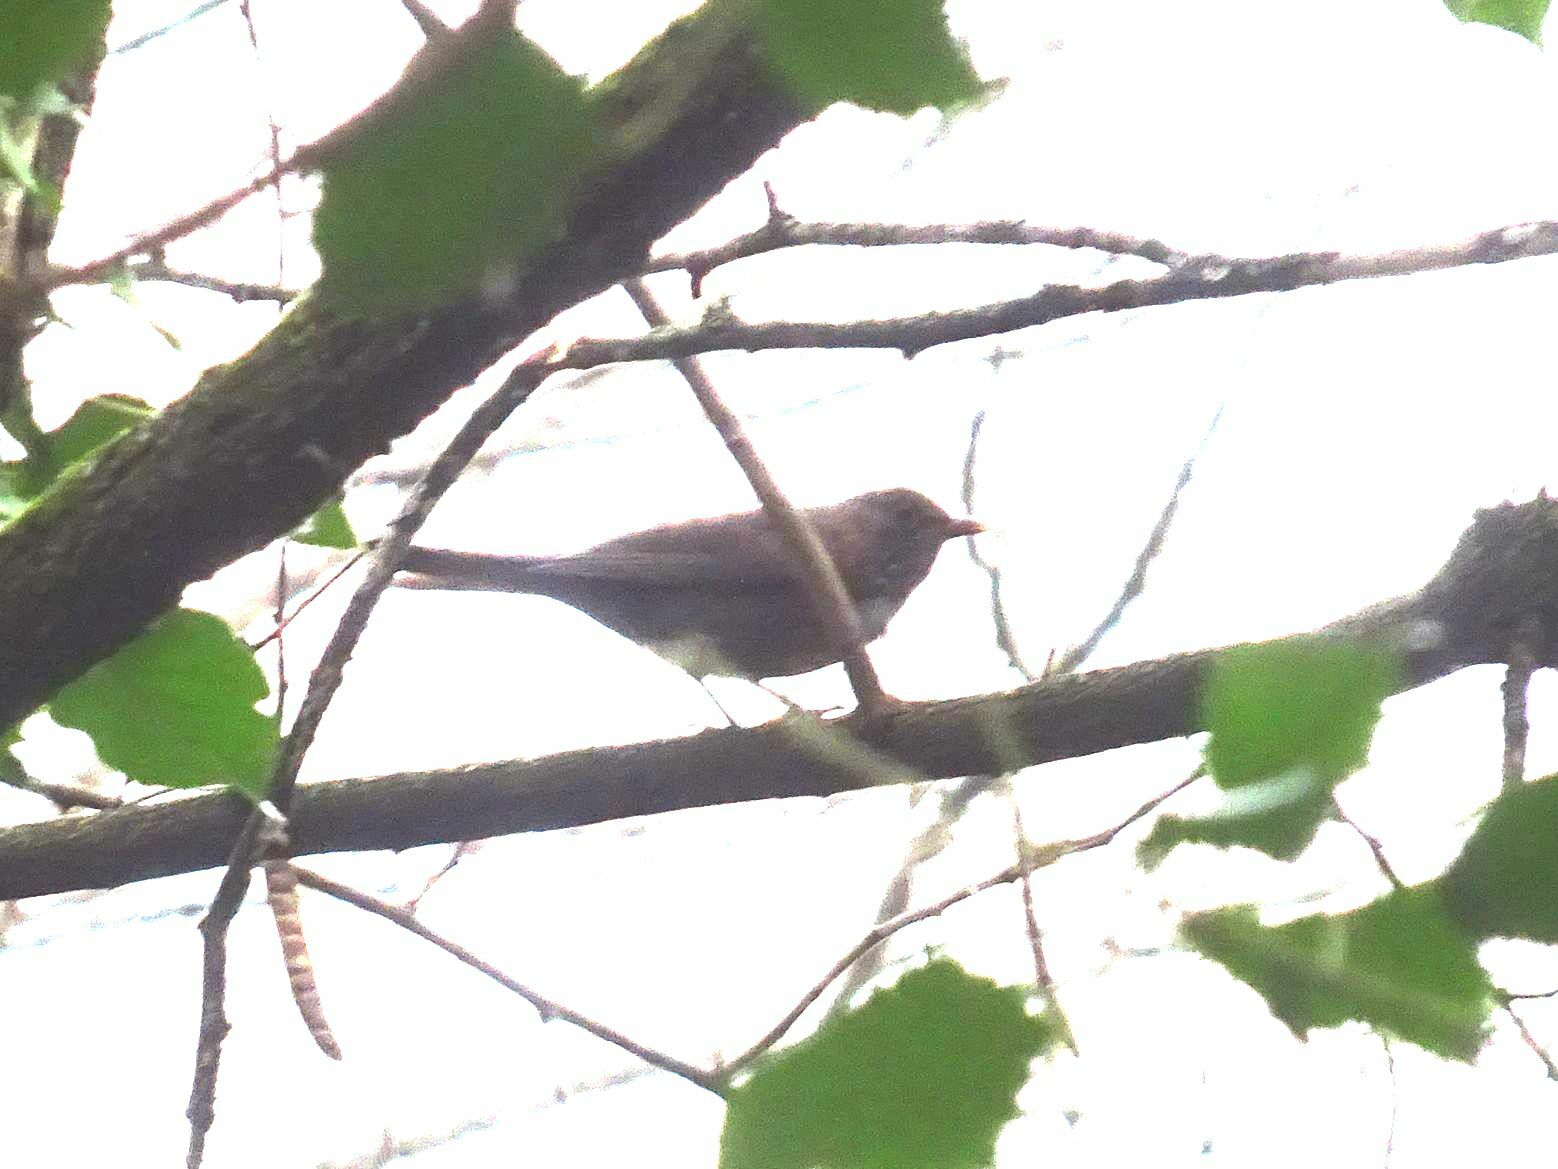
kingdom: Animalia
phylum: Chordata
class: Aves
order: Passeriformes
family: Turdidae
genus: Turdus
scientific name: Turdus merula
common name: Common blackbird
